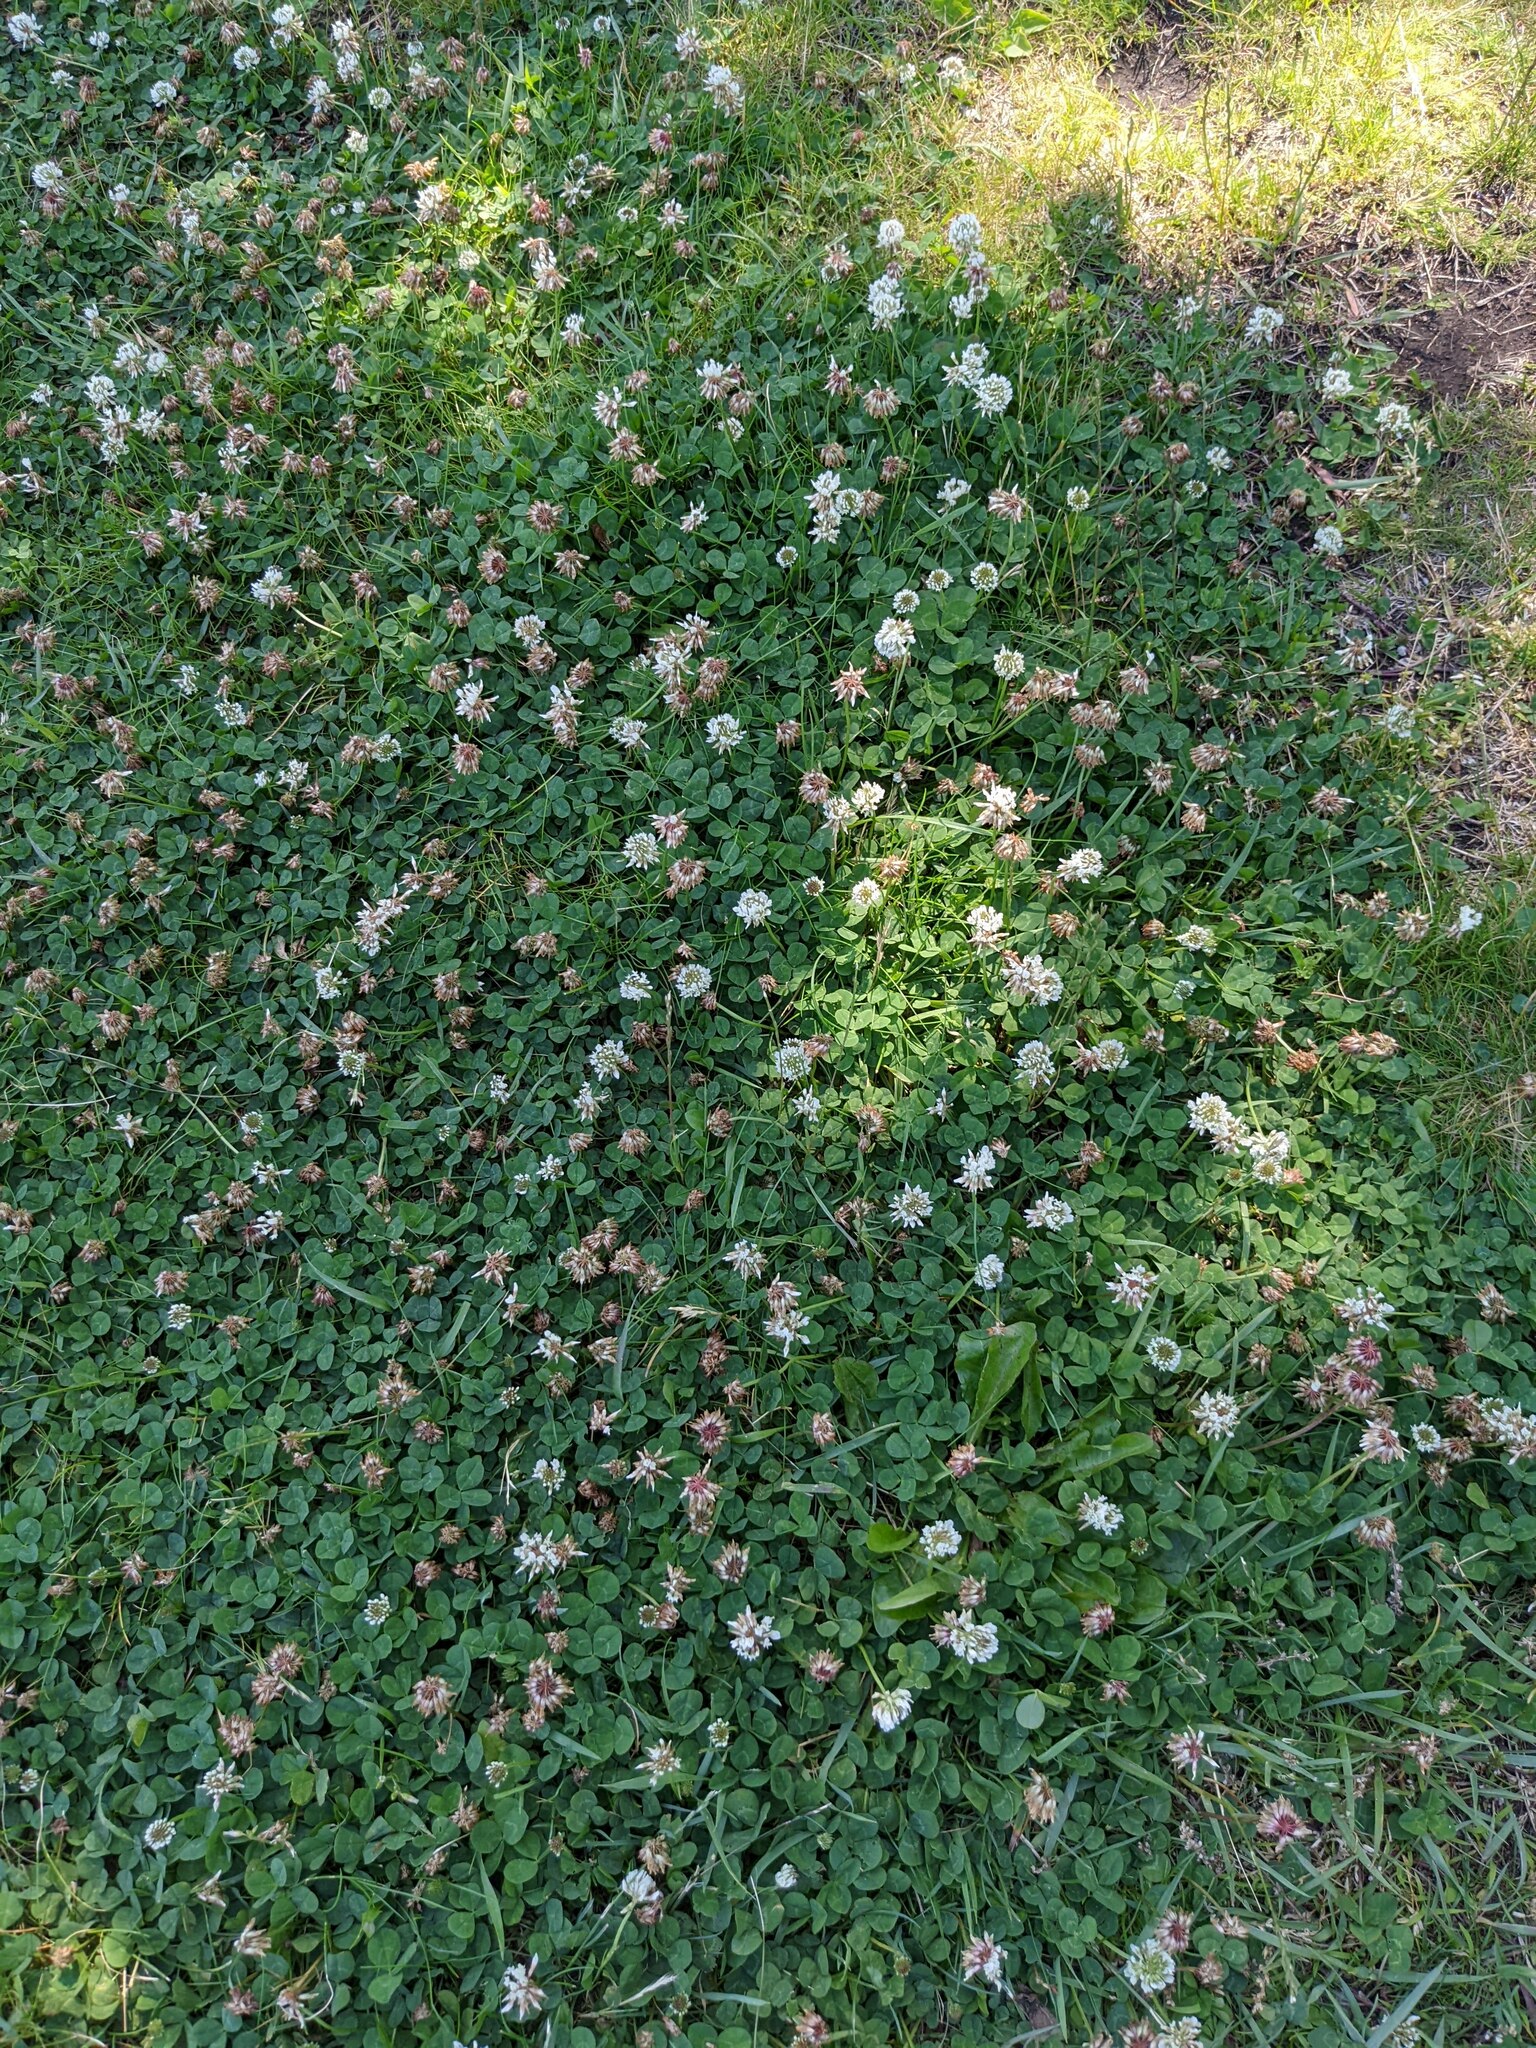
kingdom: Plantae
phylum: Tracheophyta
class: Magnoliopsida
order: Fabales
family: Fabaceae
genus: Trifolium
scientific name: Trifolium repens
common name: White clover
